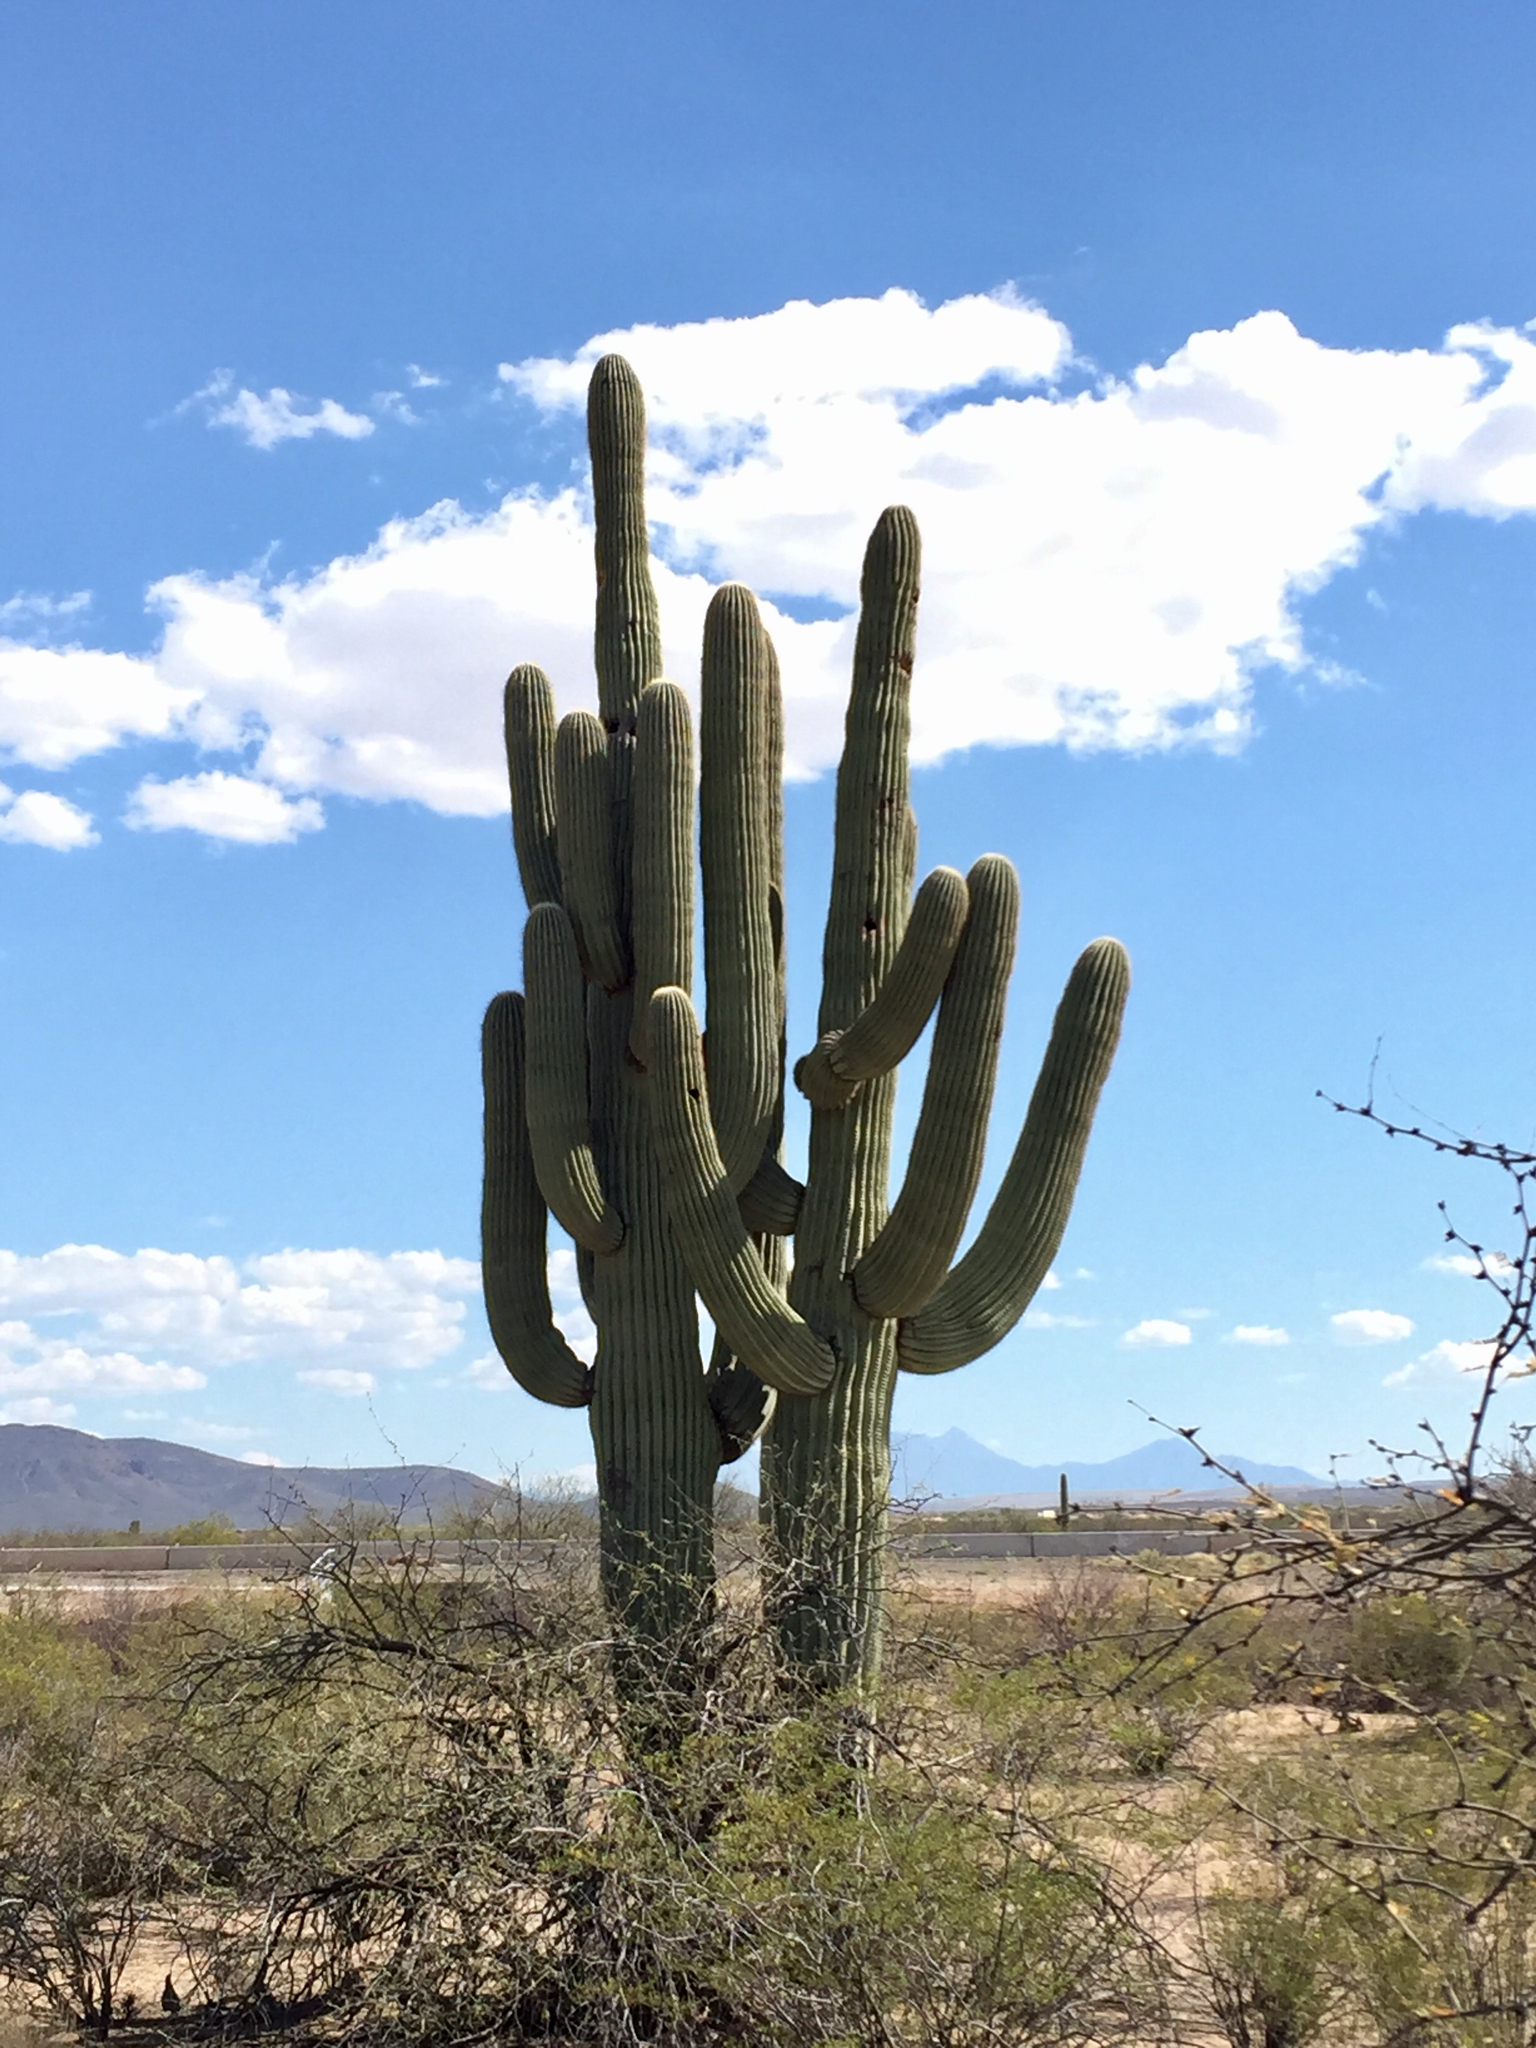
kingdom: Plantae
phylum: Tracheophyta
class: Magnoliopsida
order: Caryophyllales
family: Cactaceae
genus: Carnegiea
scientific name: Carnegiea gigantea
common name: Saguaro
